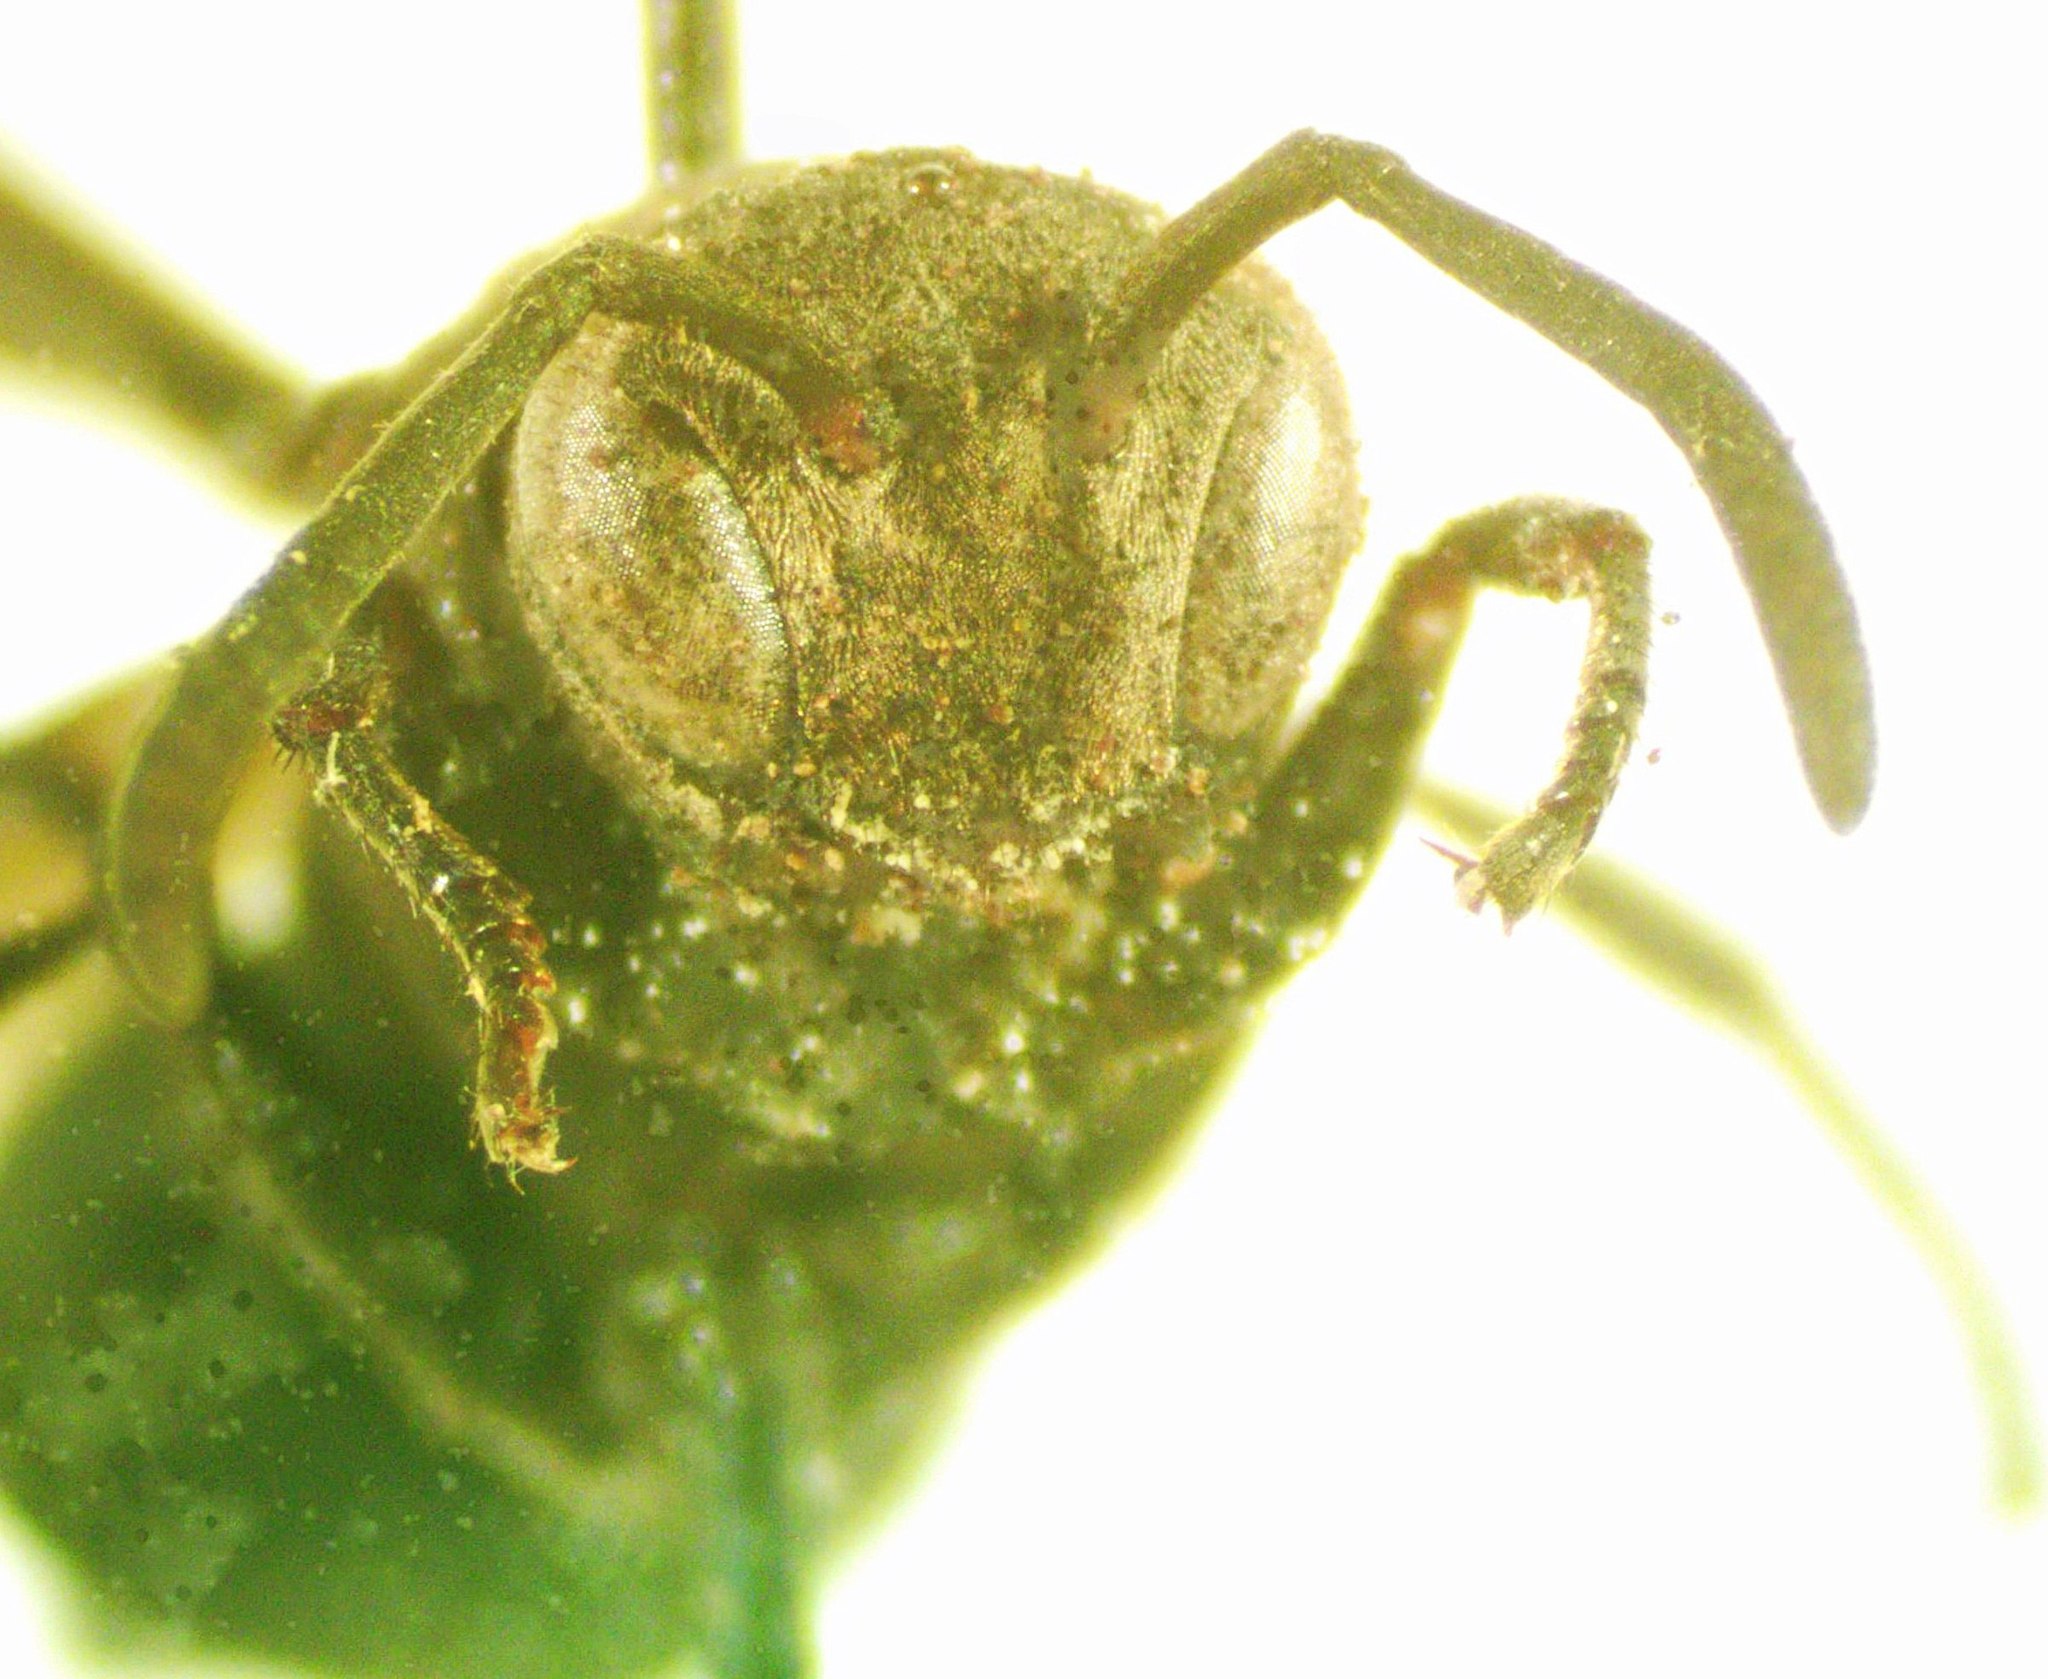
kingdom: Animalia
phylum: Arthropoda
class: Insecta
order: Hymenoptera
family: Vespidae
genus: Parachartergus
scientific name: Parachartergus apicalis
